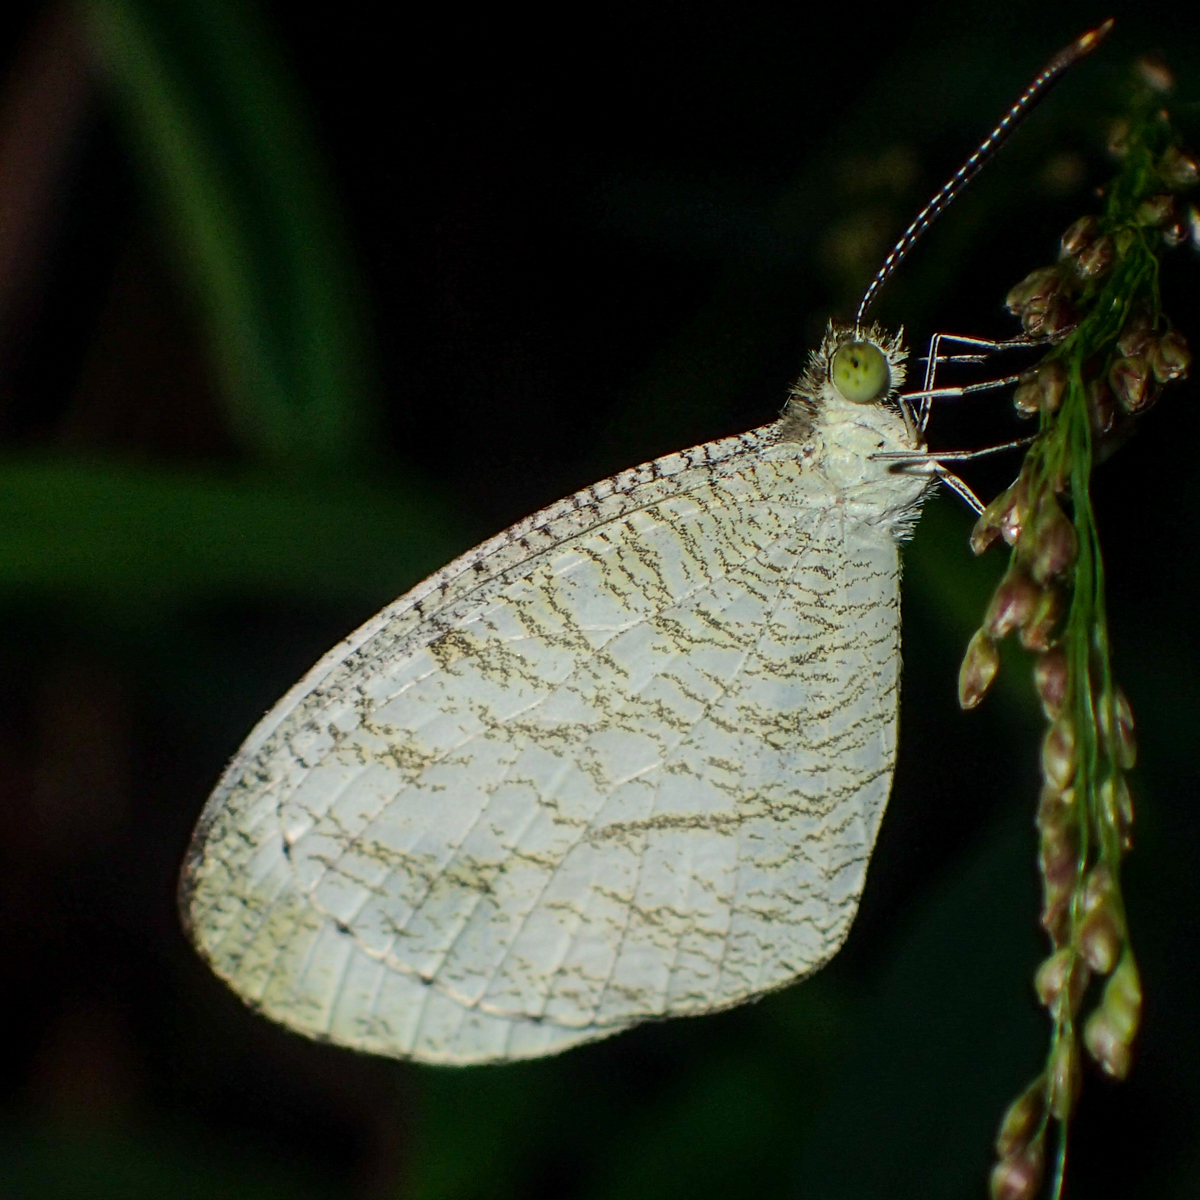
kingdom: Animalia
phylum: Arthropoda
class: Insecta
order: Lepidoptera
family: Pieridae
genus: Leptosia
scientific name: Leptosia nina
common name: Psyche
